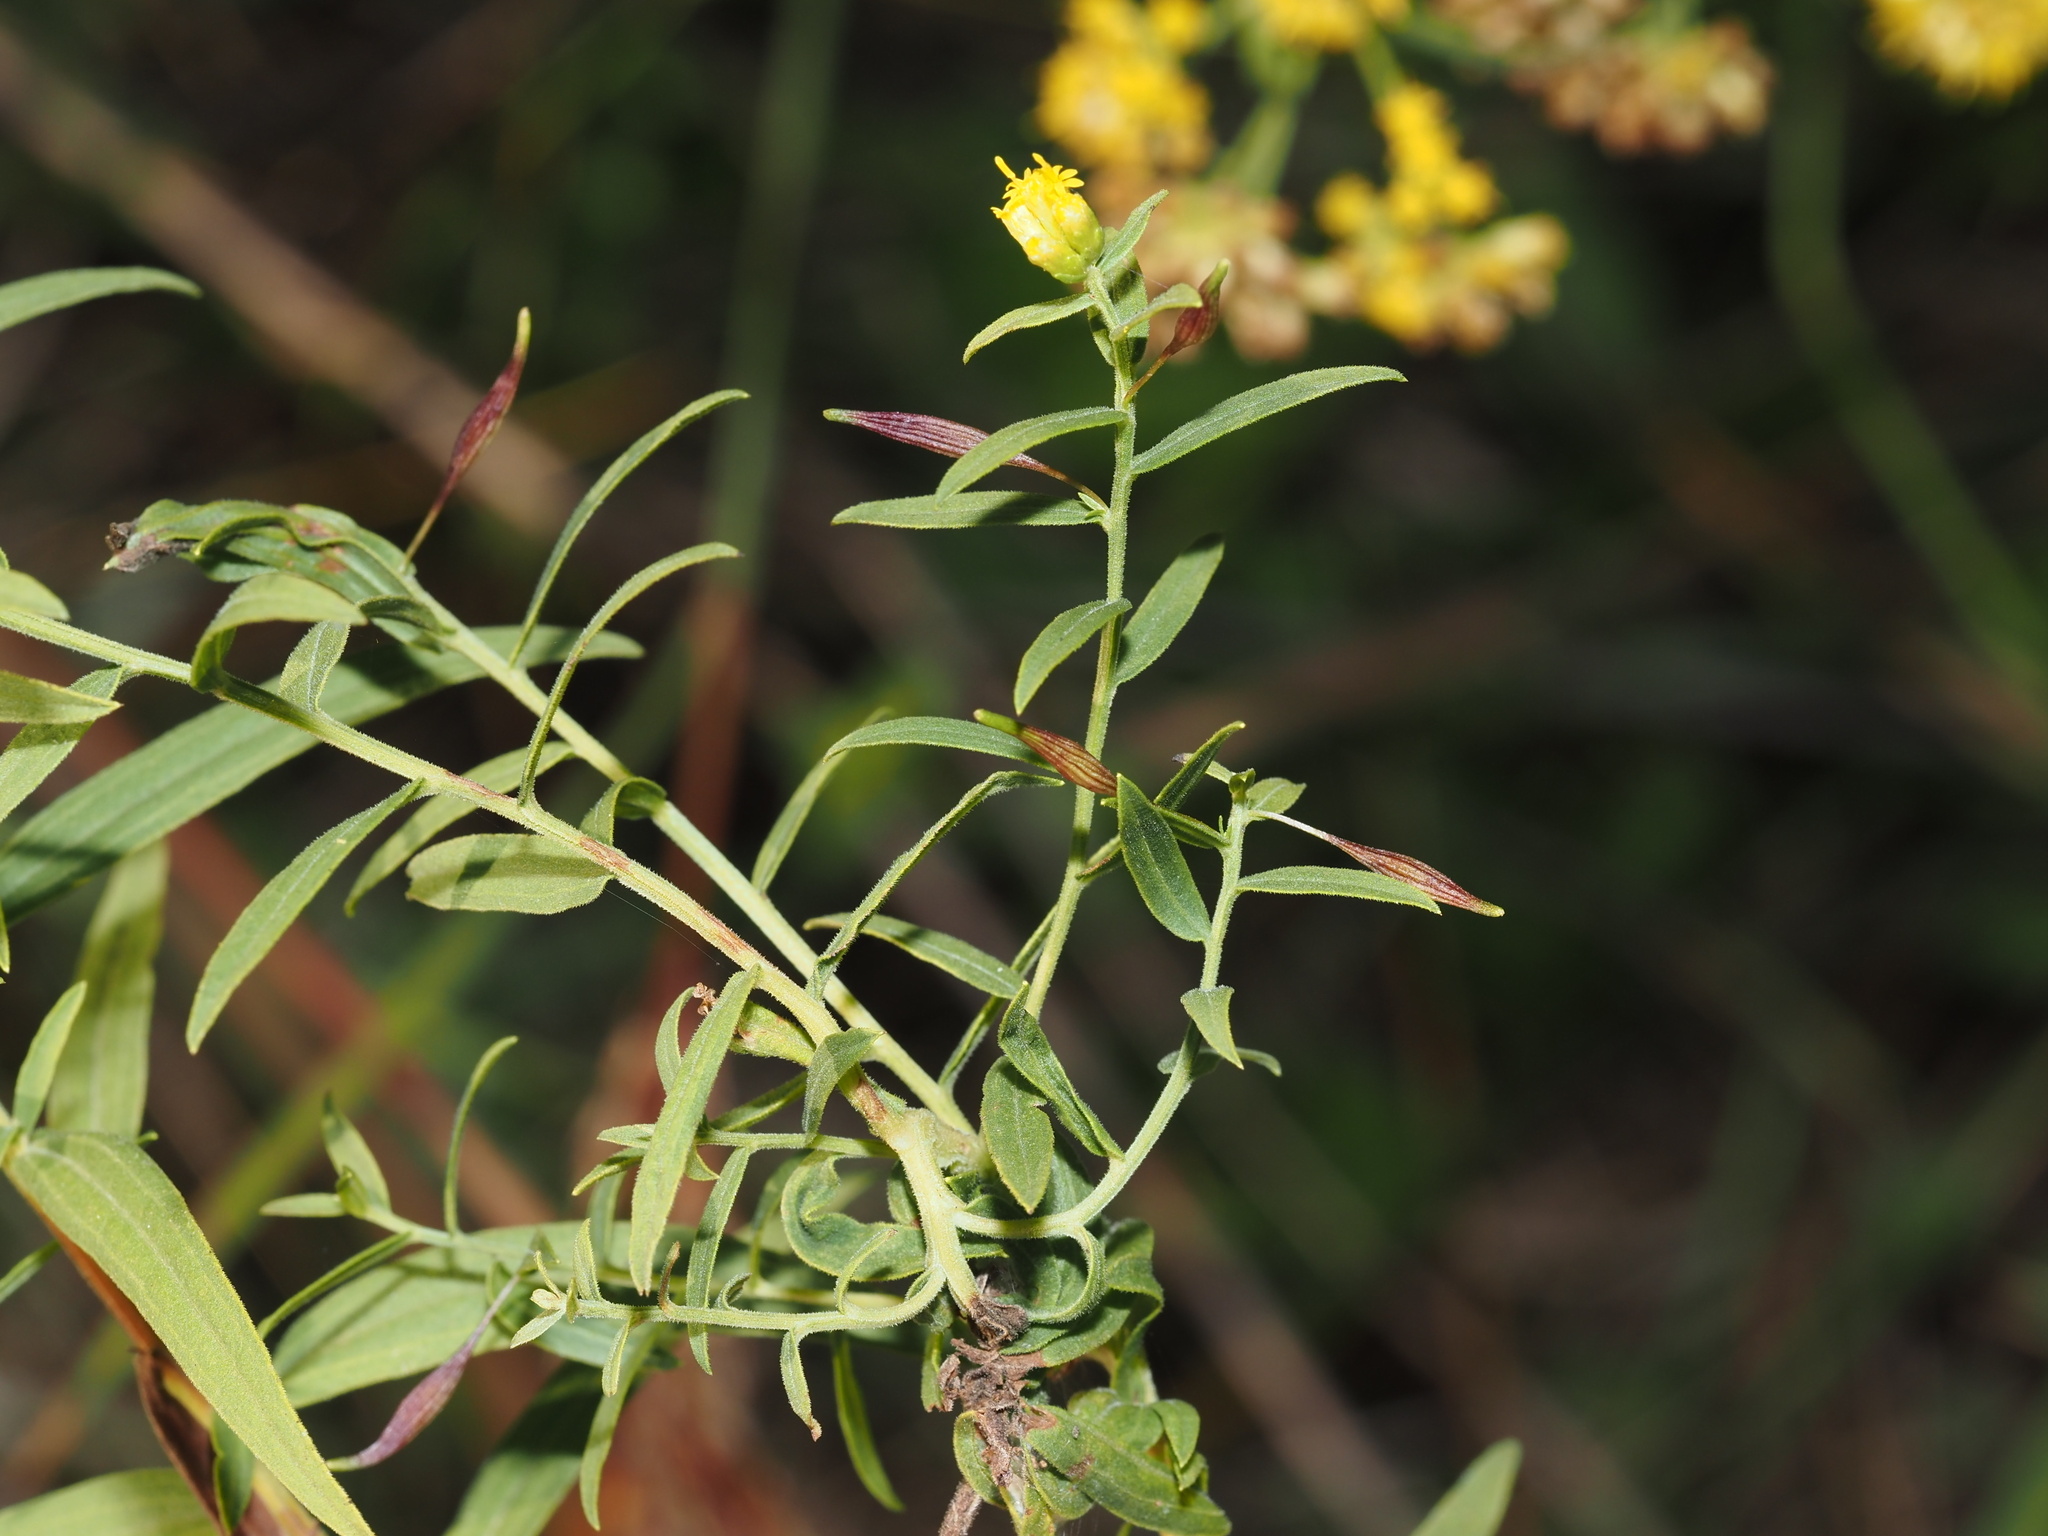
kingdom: Animalia
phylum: Arthropoda
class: Insecta
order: Diptera
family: Cecidomyiidae
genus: Rhopalomyia
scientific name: Rhopalomyia pedicellata
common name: Goldentop pedicellate gall midge
